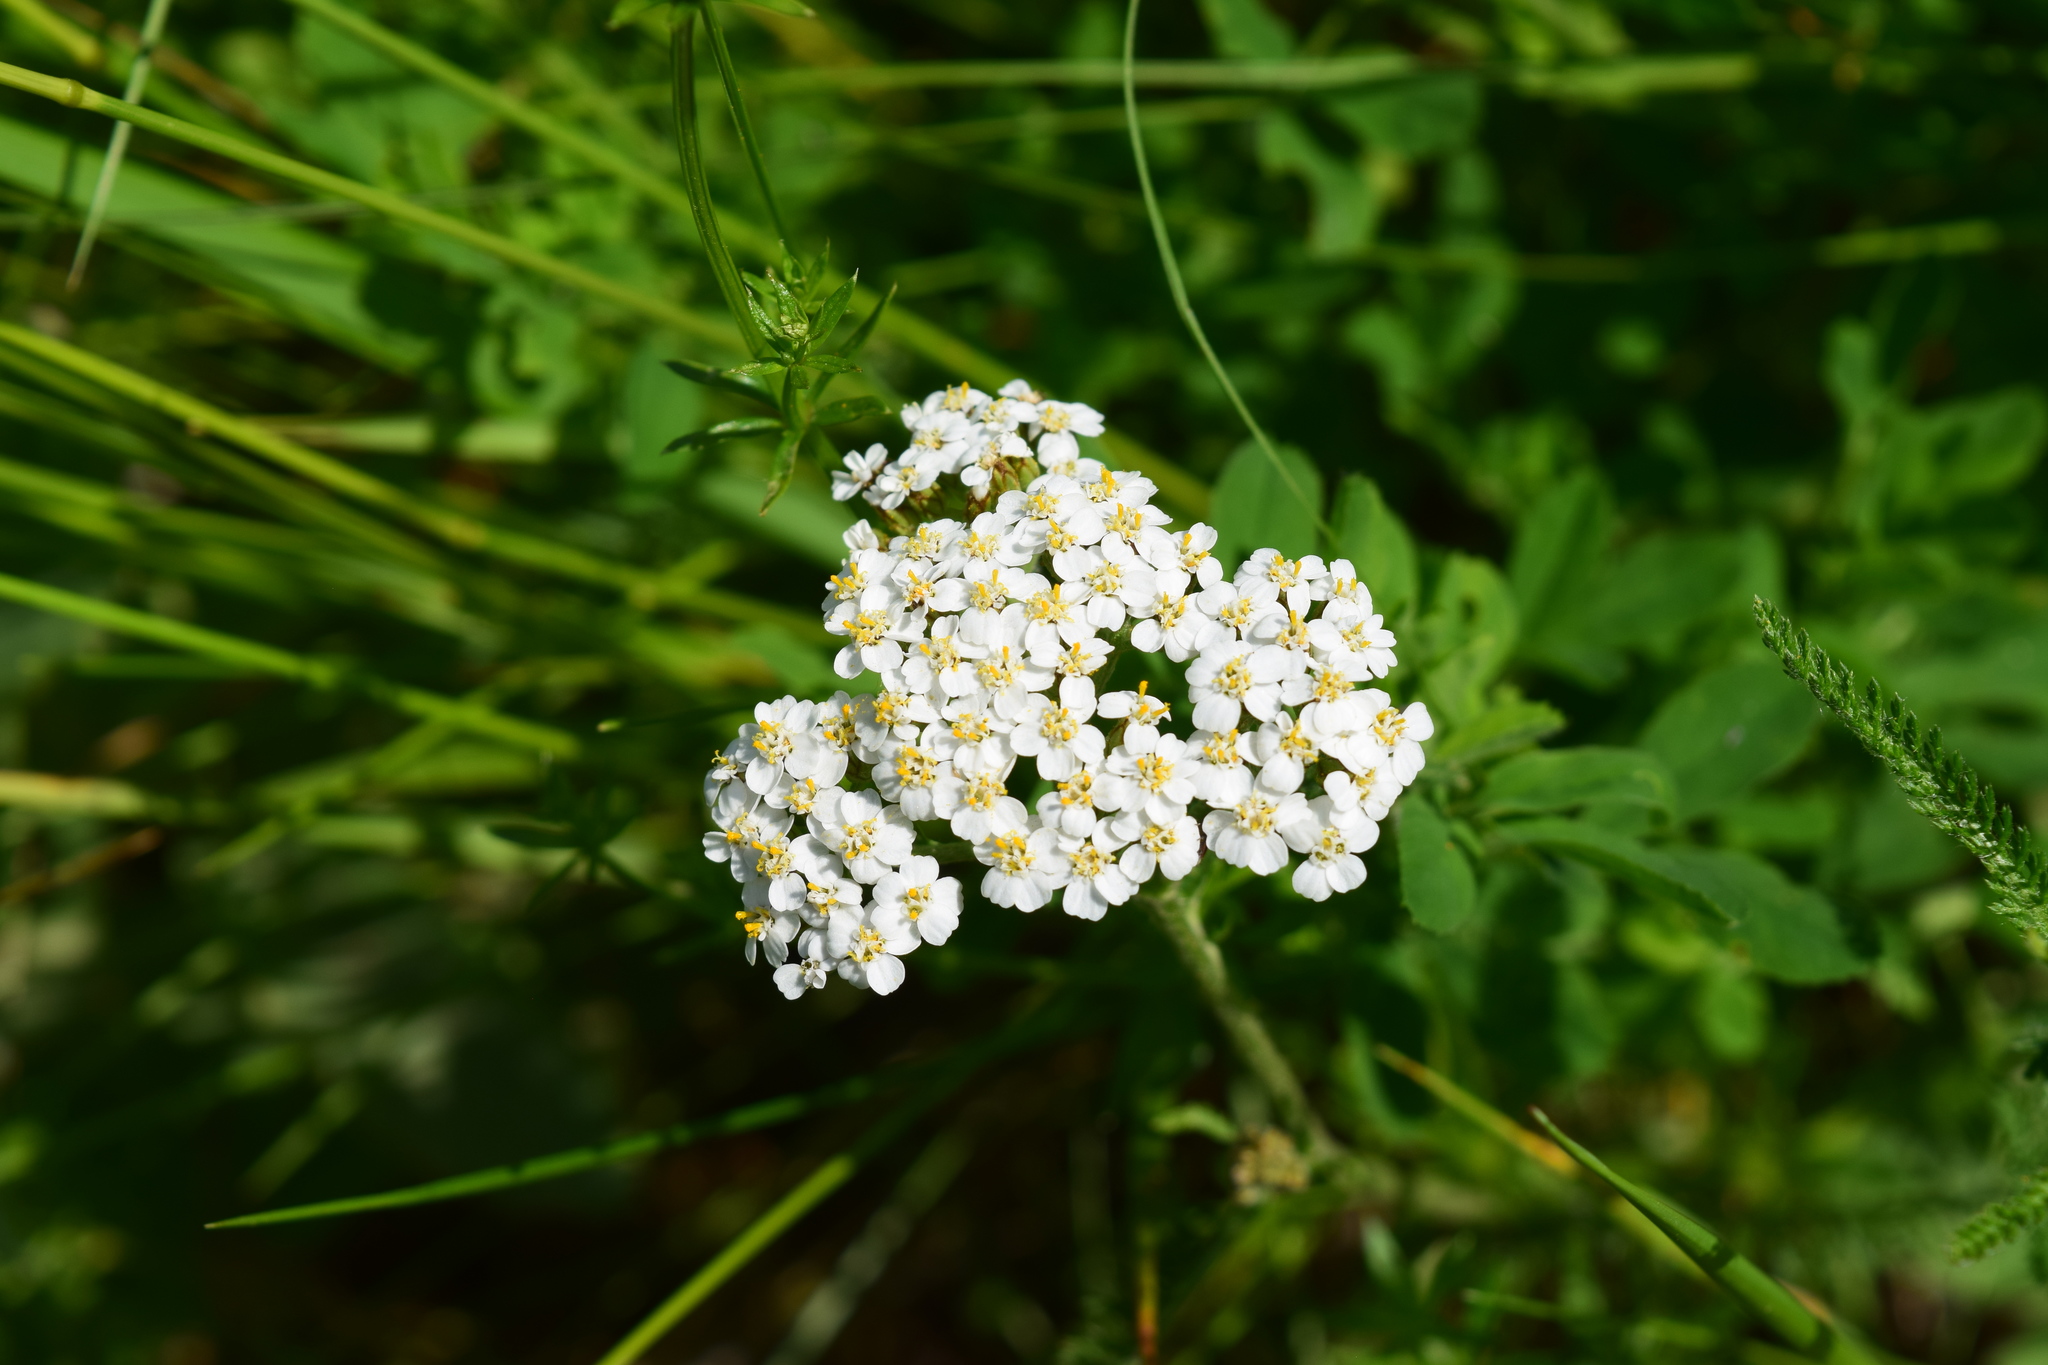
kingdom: Plantae
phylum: Tracheophyta
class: Magnoliopsida
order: Asterales
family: Asteraceae
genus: Achillea
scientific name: Achillea millefolium
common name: Yarrow
